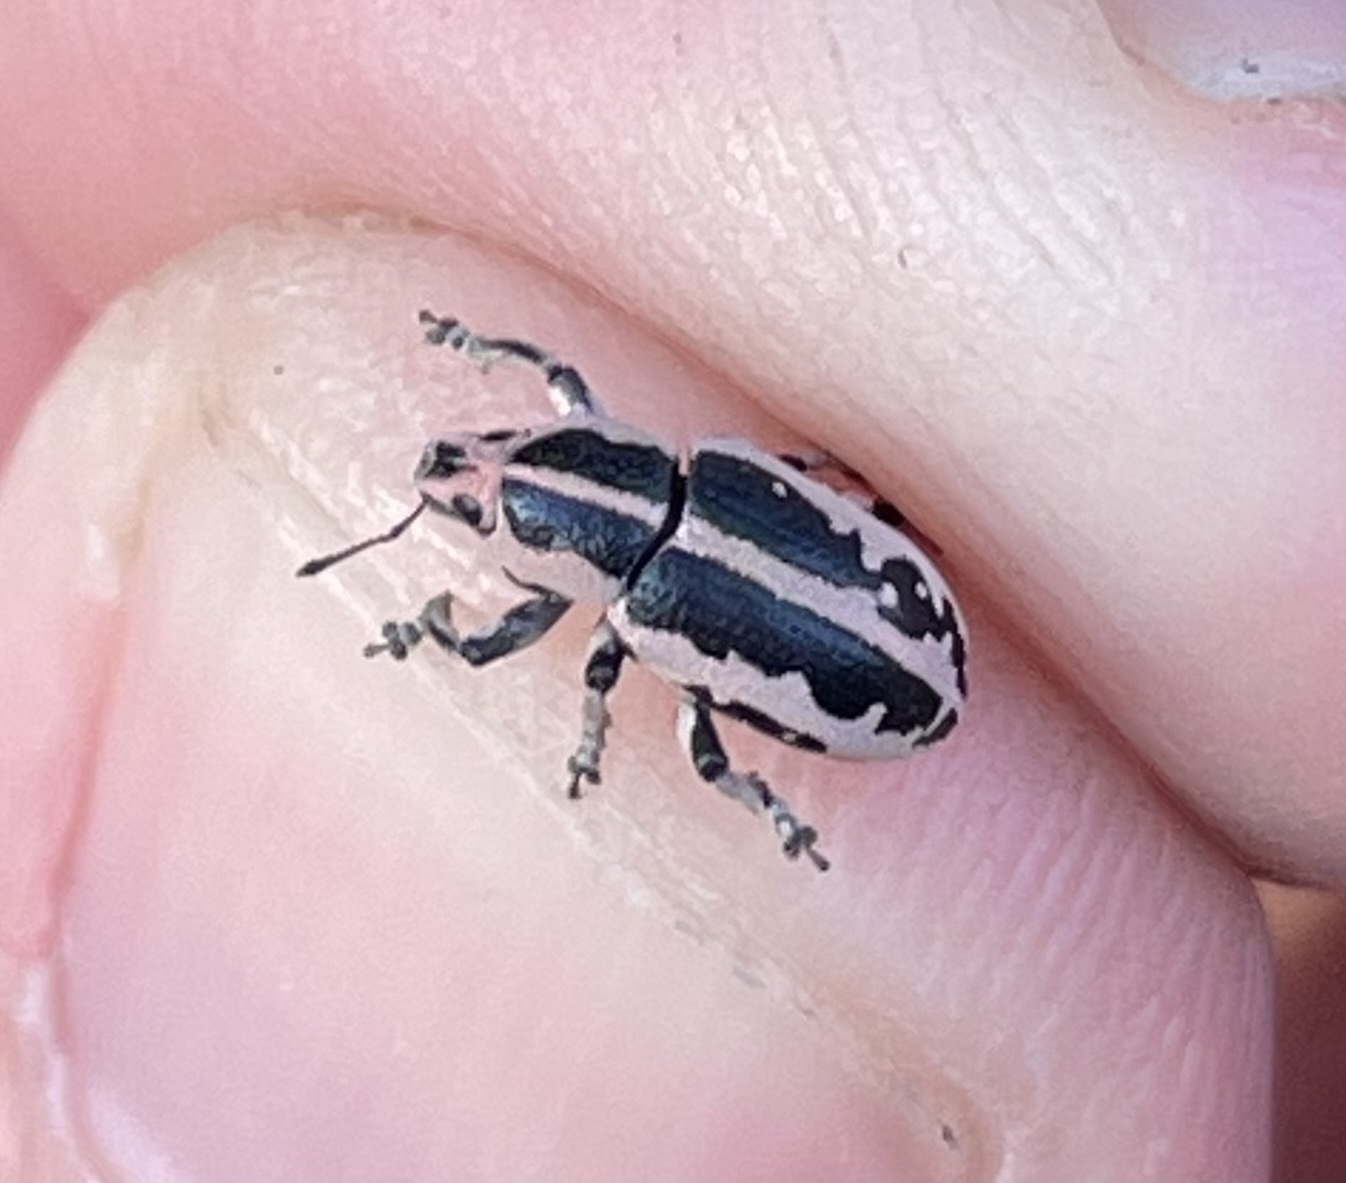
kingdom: Animalia
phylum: Arthropoda
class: Insecta
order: Coleoptera
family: Curculionidae
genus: Eudiagogus
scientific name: Eudiagogus rosenschoeldi
